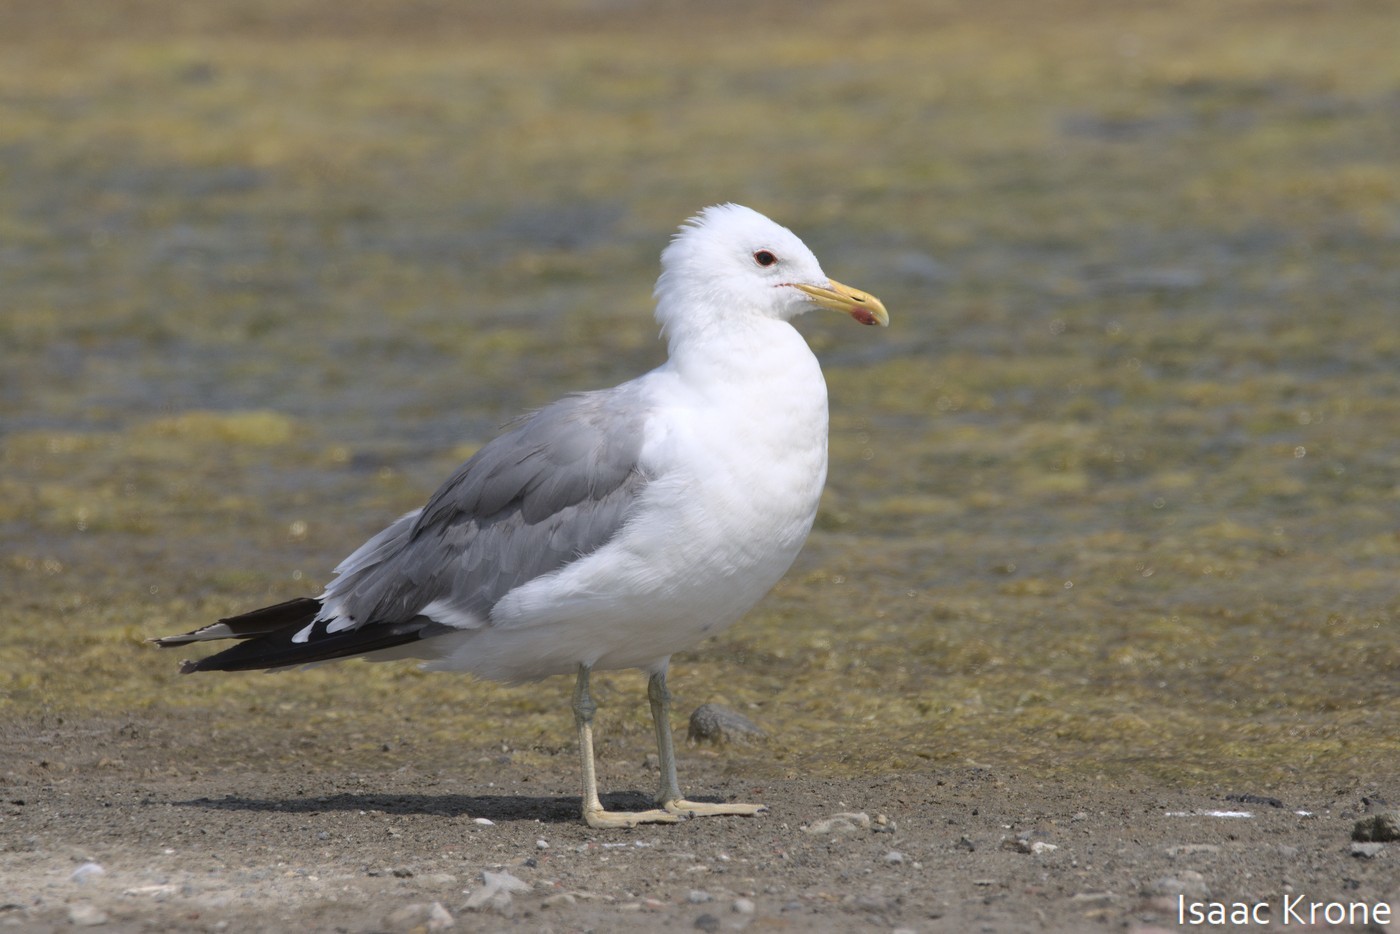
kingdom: Animalia
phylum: Chordata
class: Aves
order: Charadriiformes
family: Laridae
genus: Larus
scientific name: Larus californicus
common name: California gull
